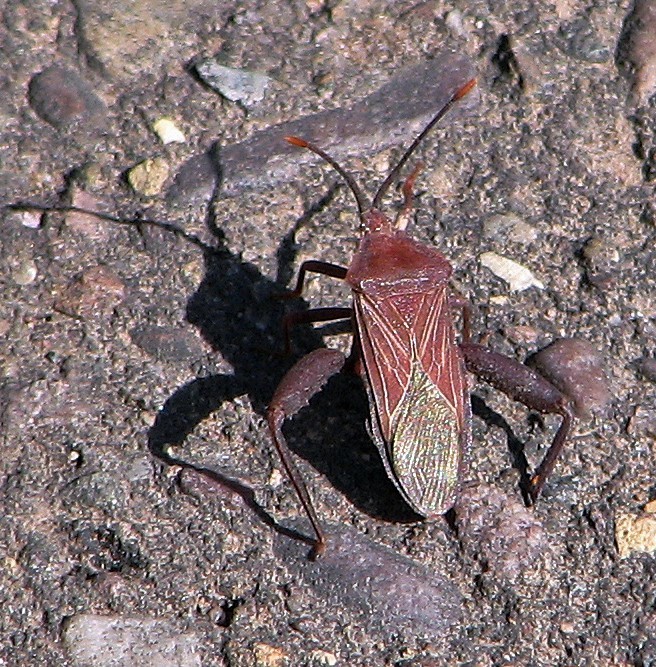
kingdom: Animalia
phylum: Arthropoda
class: Insecta
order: Hemiptera
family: Coreidae
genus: Athaumastus
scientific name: Athaumastus haematicus
